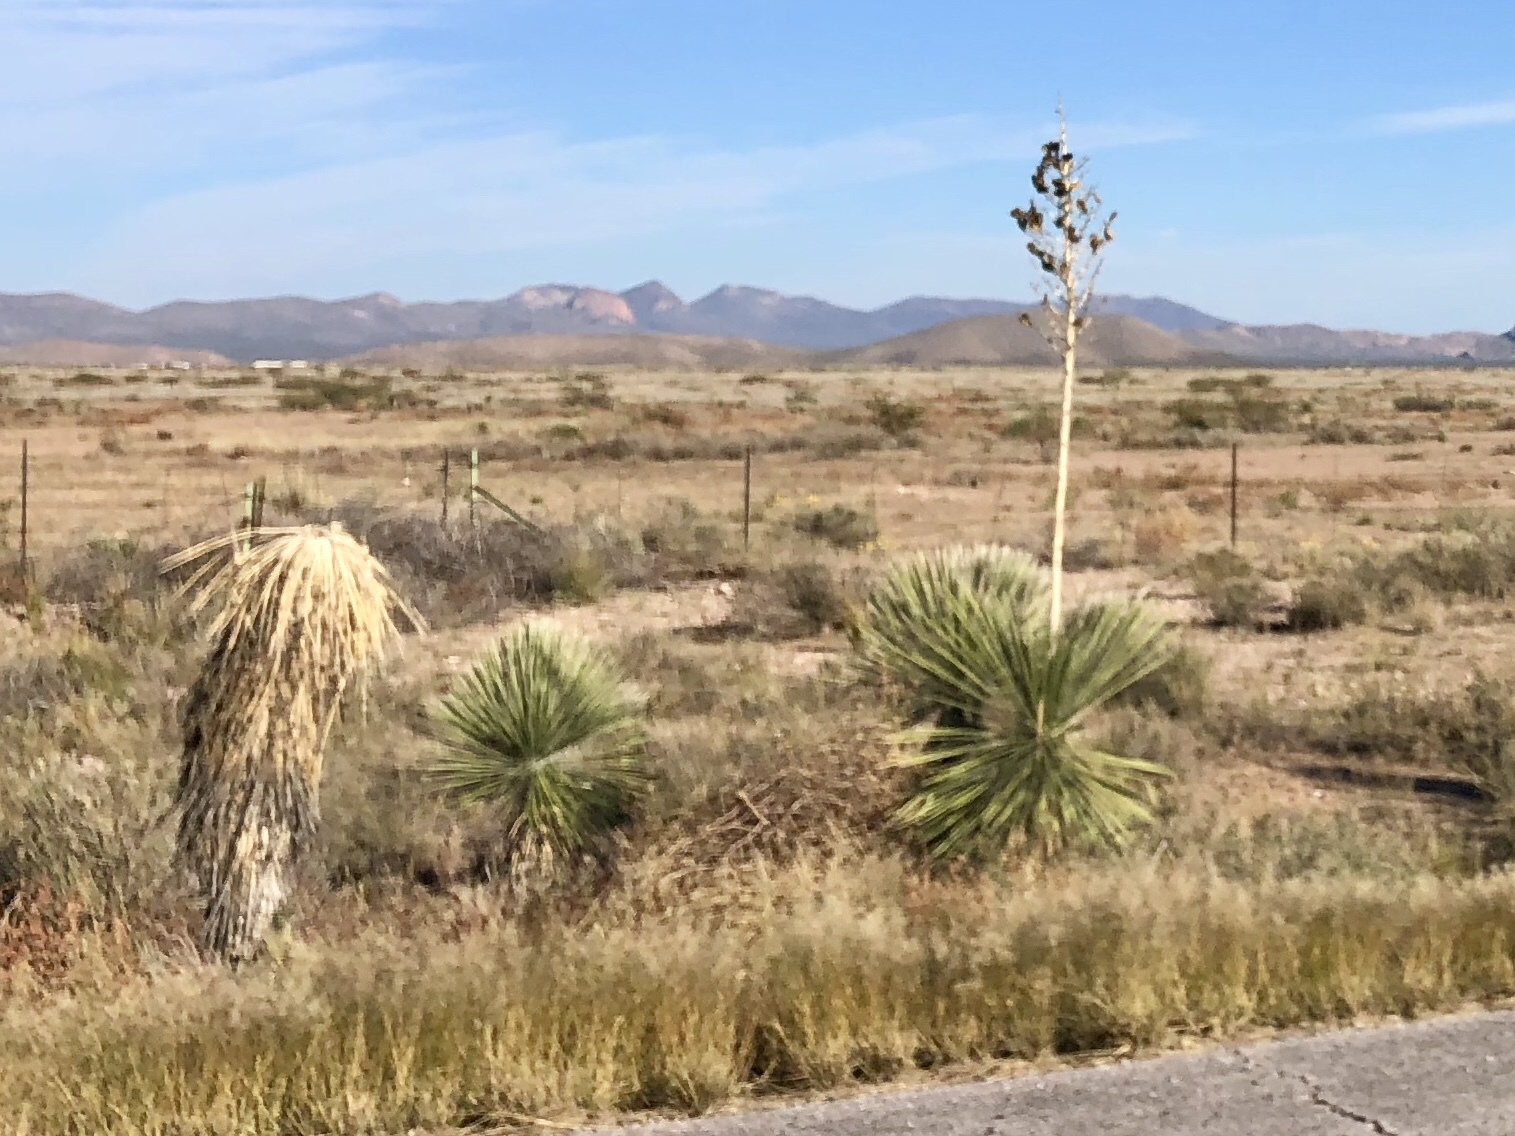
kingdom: Plantae
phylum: Tracheophyta
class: Liliopsida
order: Asparagales
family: Asparagaceae
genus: Yucca
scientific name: Yucca elata
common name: Palmella
